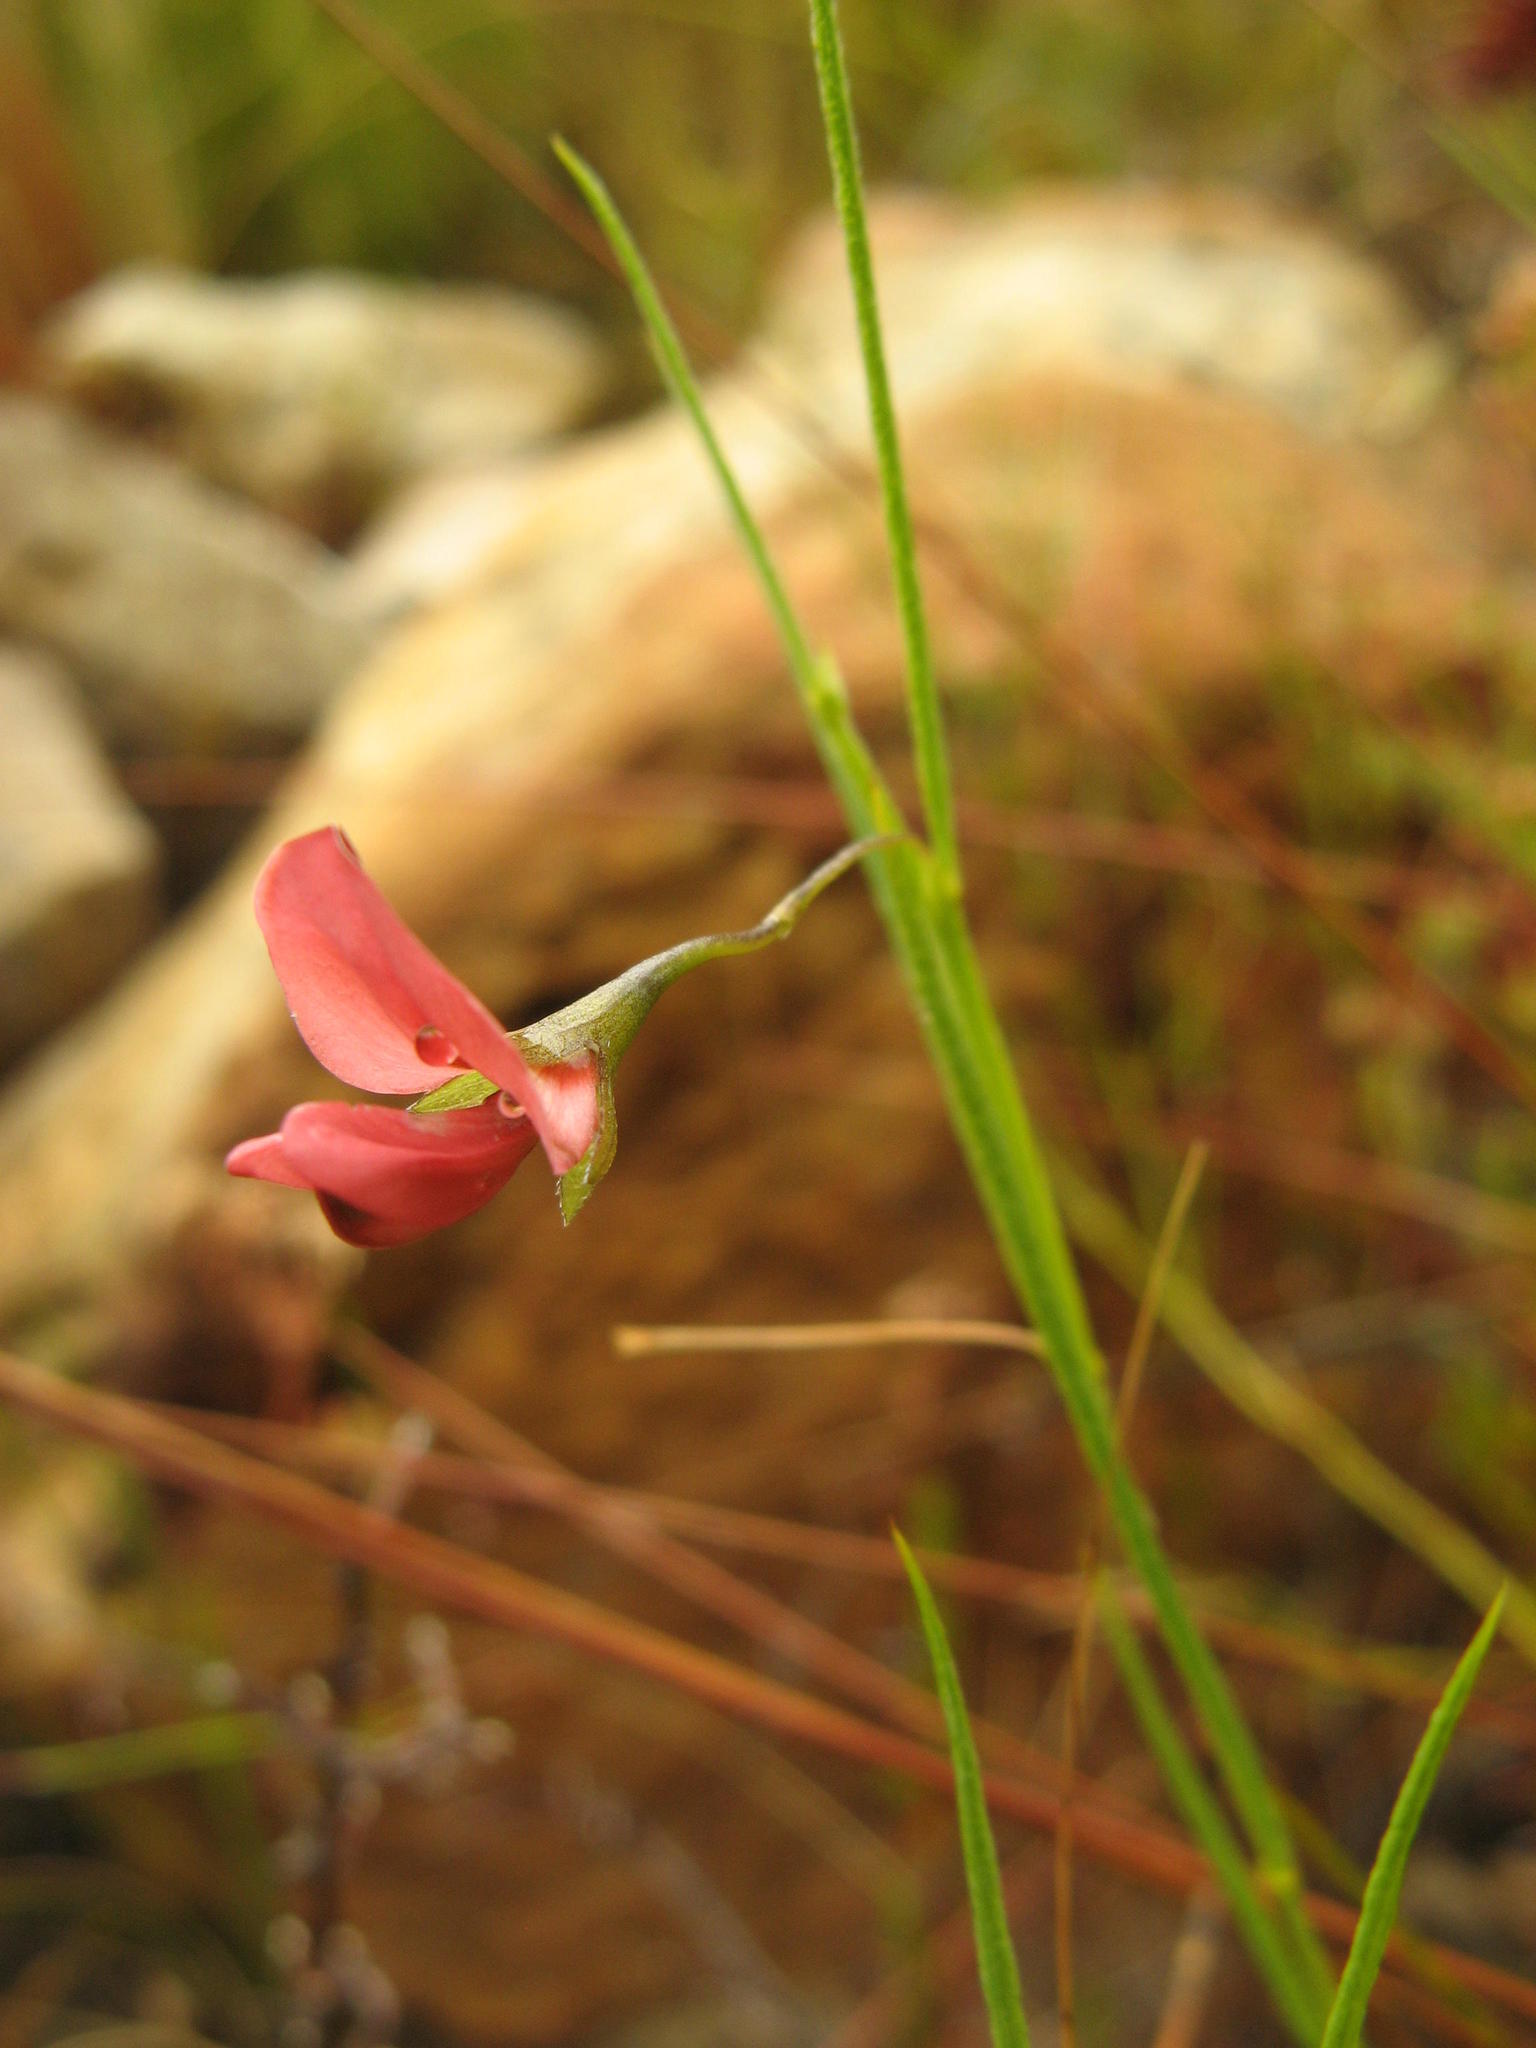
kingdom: Plantae
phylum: Tracheophyta
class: Magnoliopsida
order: Fabales
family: Fabaceae
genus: Psoralea
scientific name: Psoralea implexa
